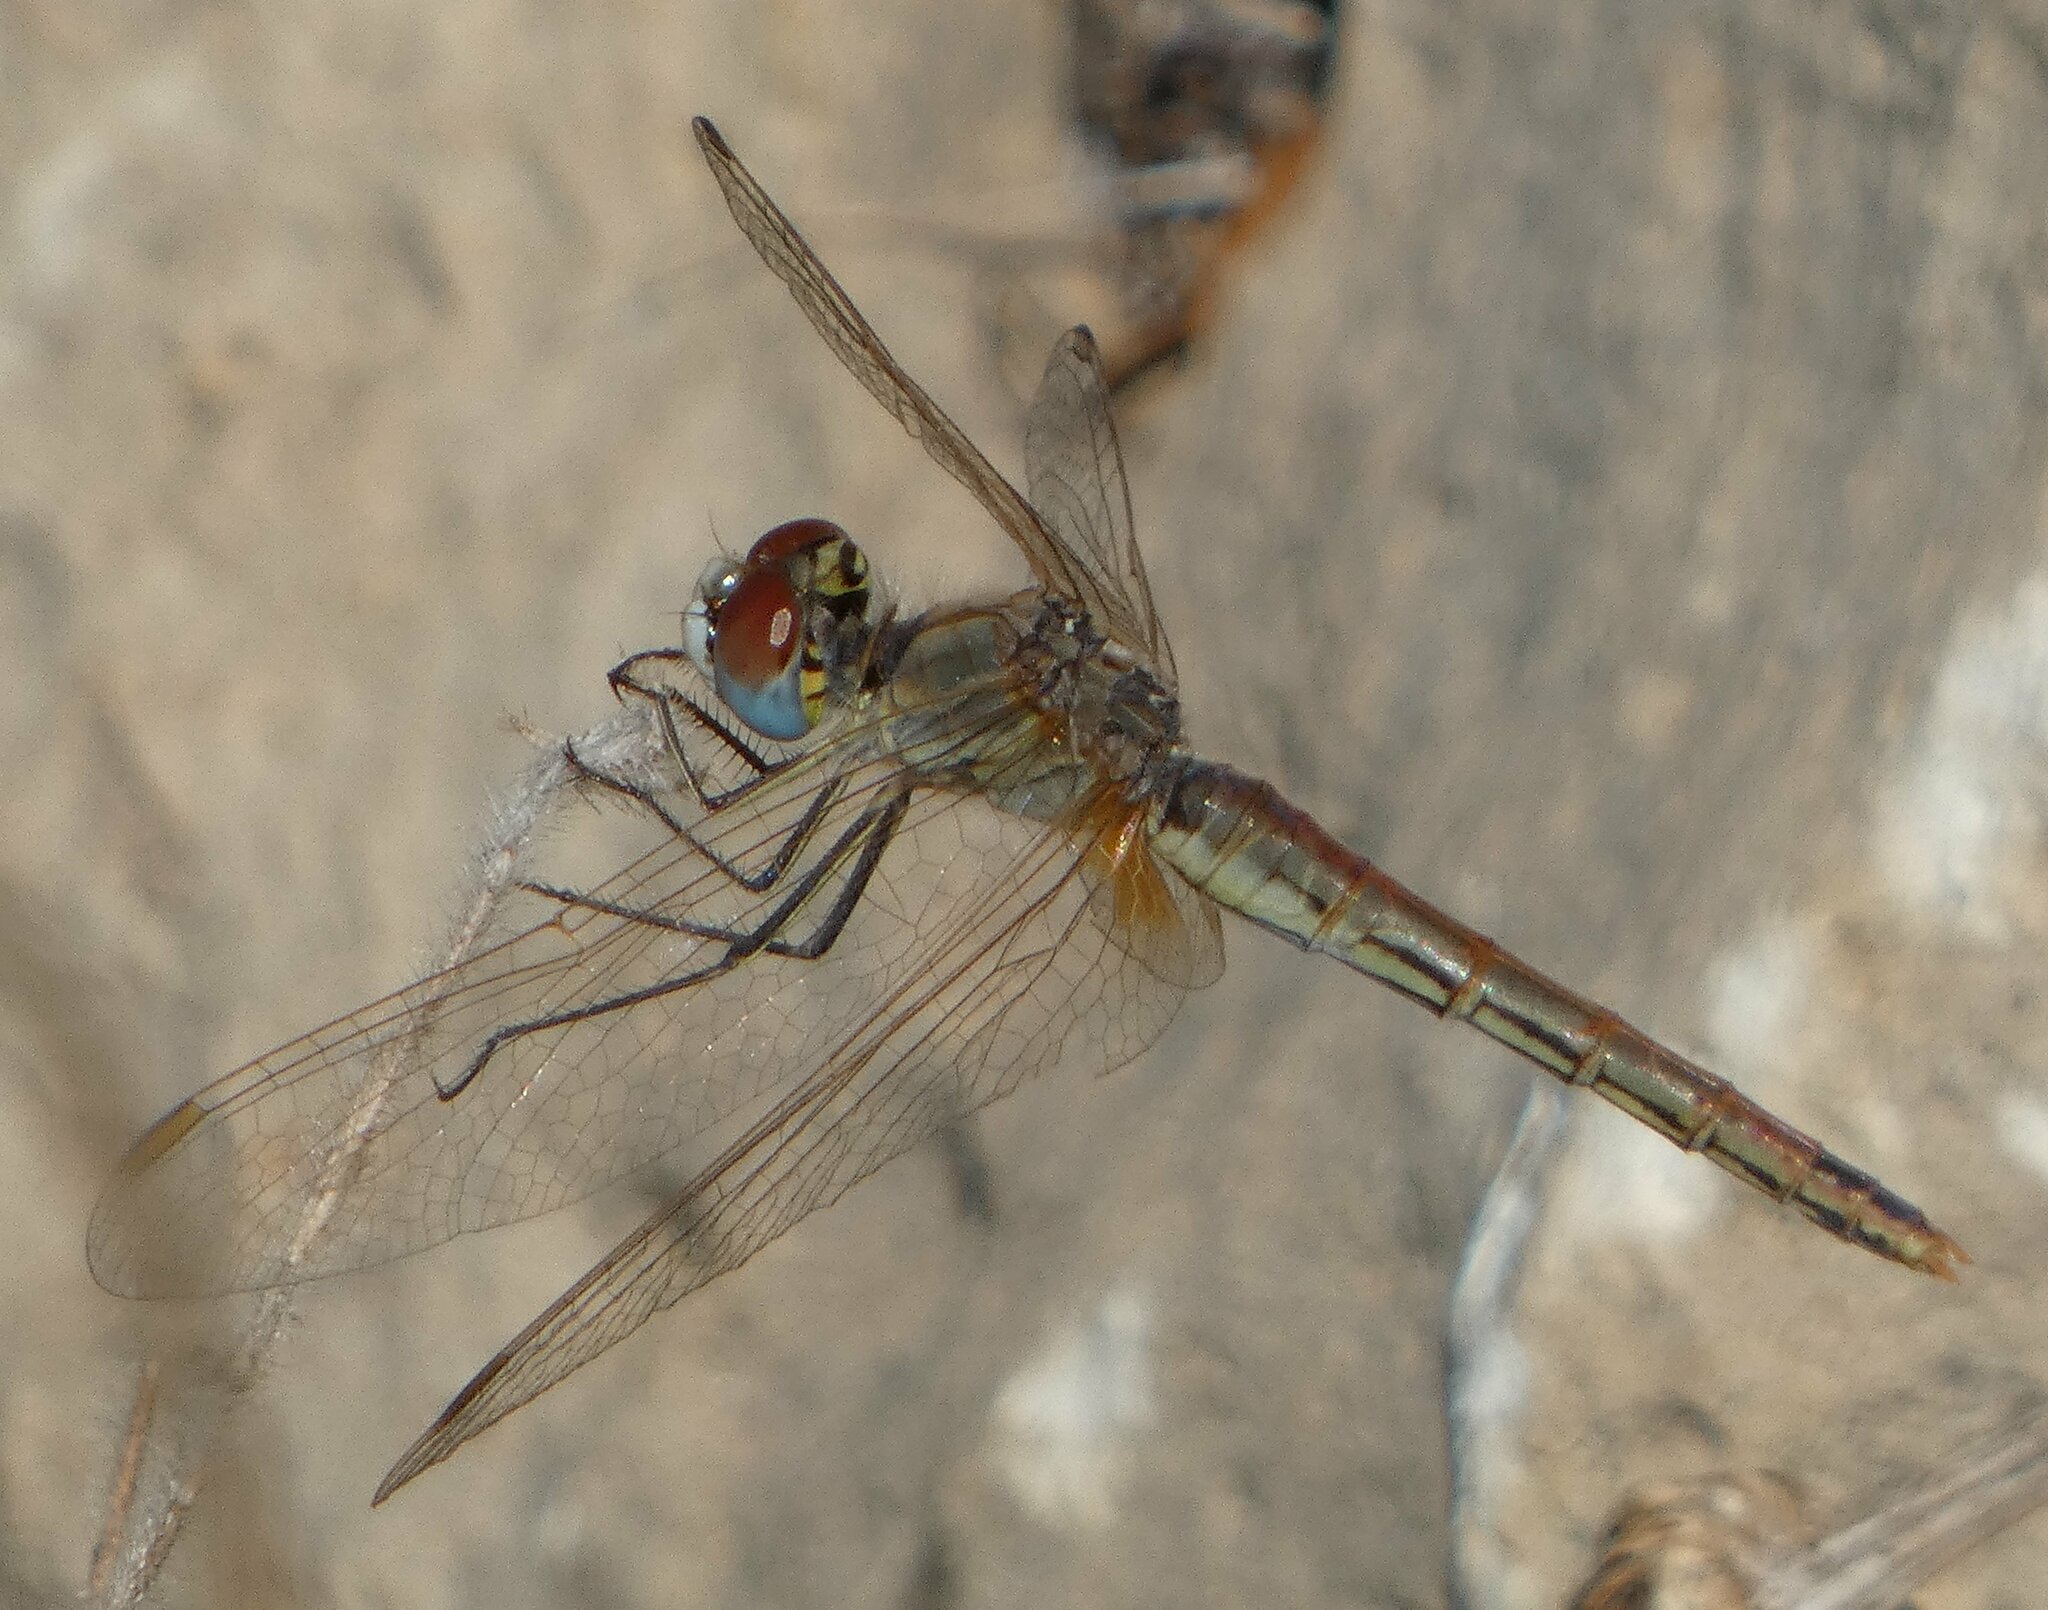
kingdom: Animalia
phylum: Arthropoda
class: Insecta
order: Odonata
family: Libellulidae
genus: Sympetrum
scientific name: Sympetrum fonscolombii
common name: Red-veined darter
